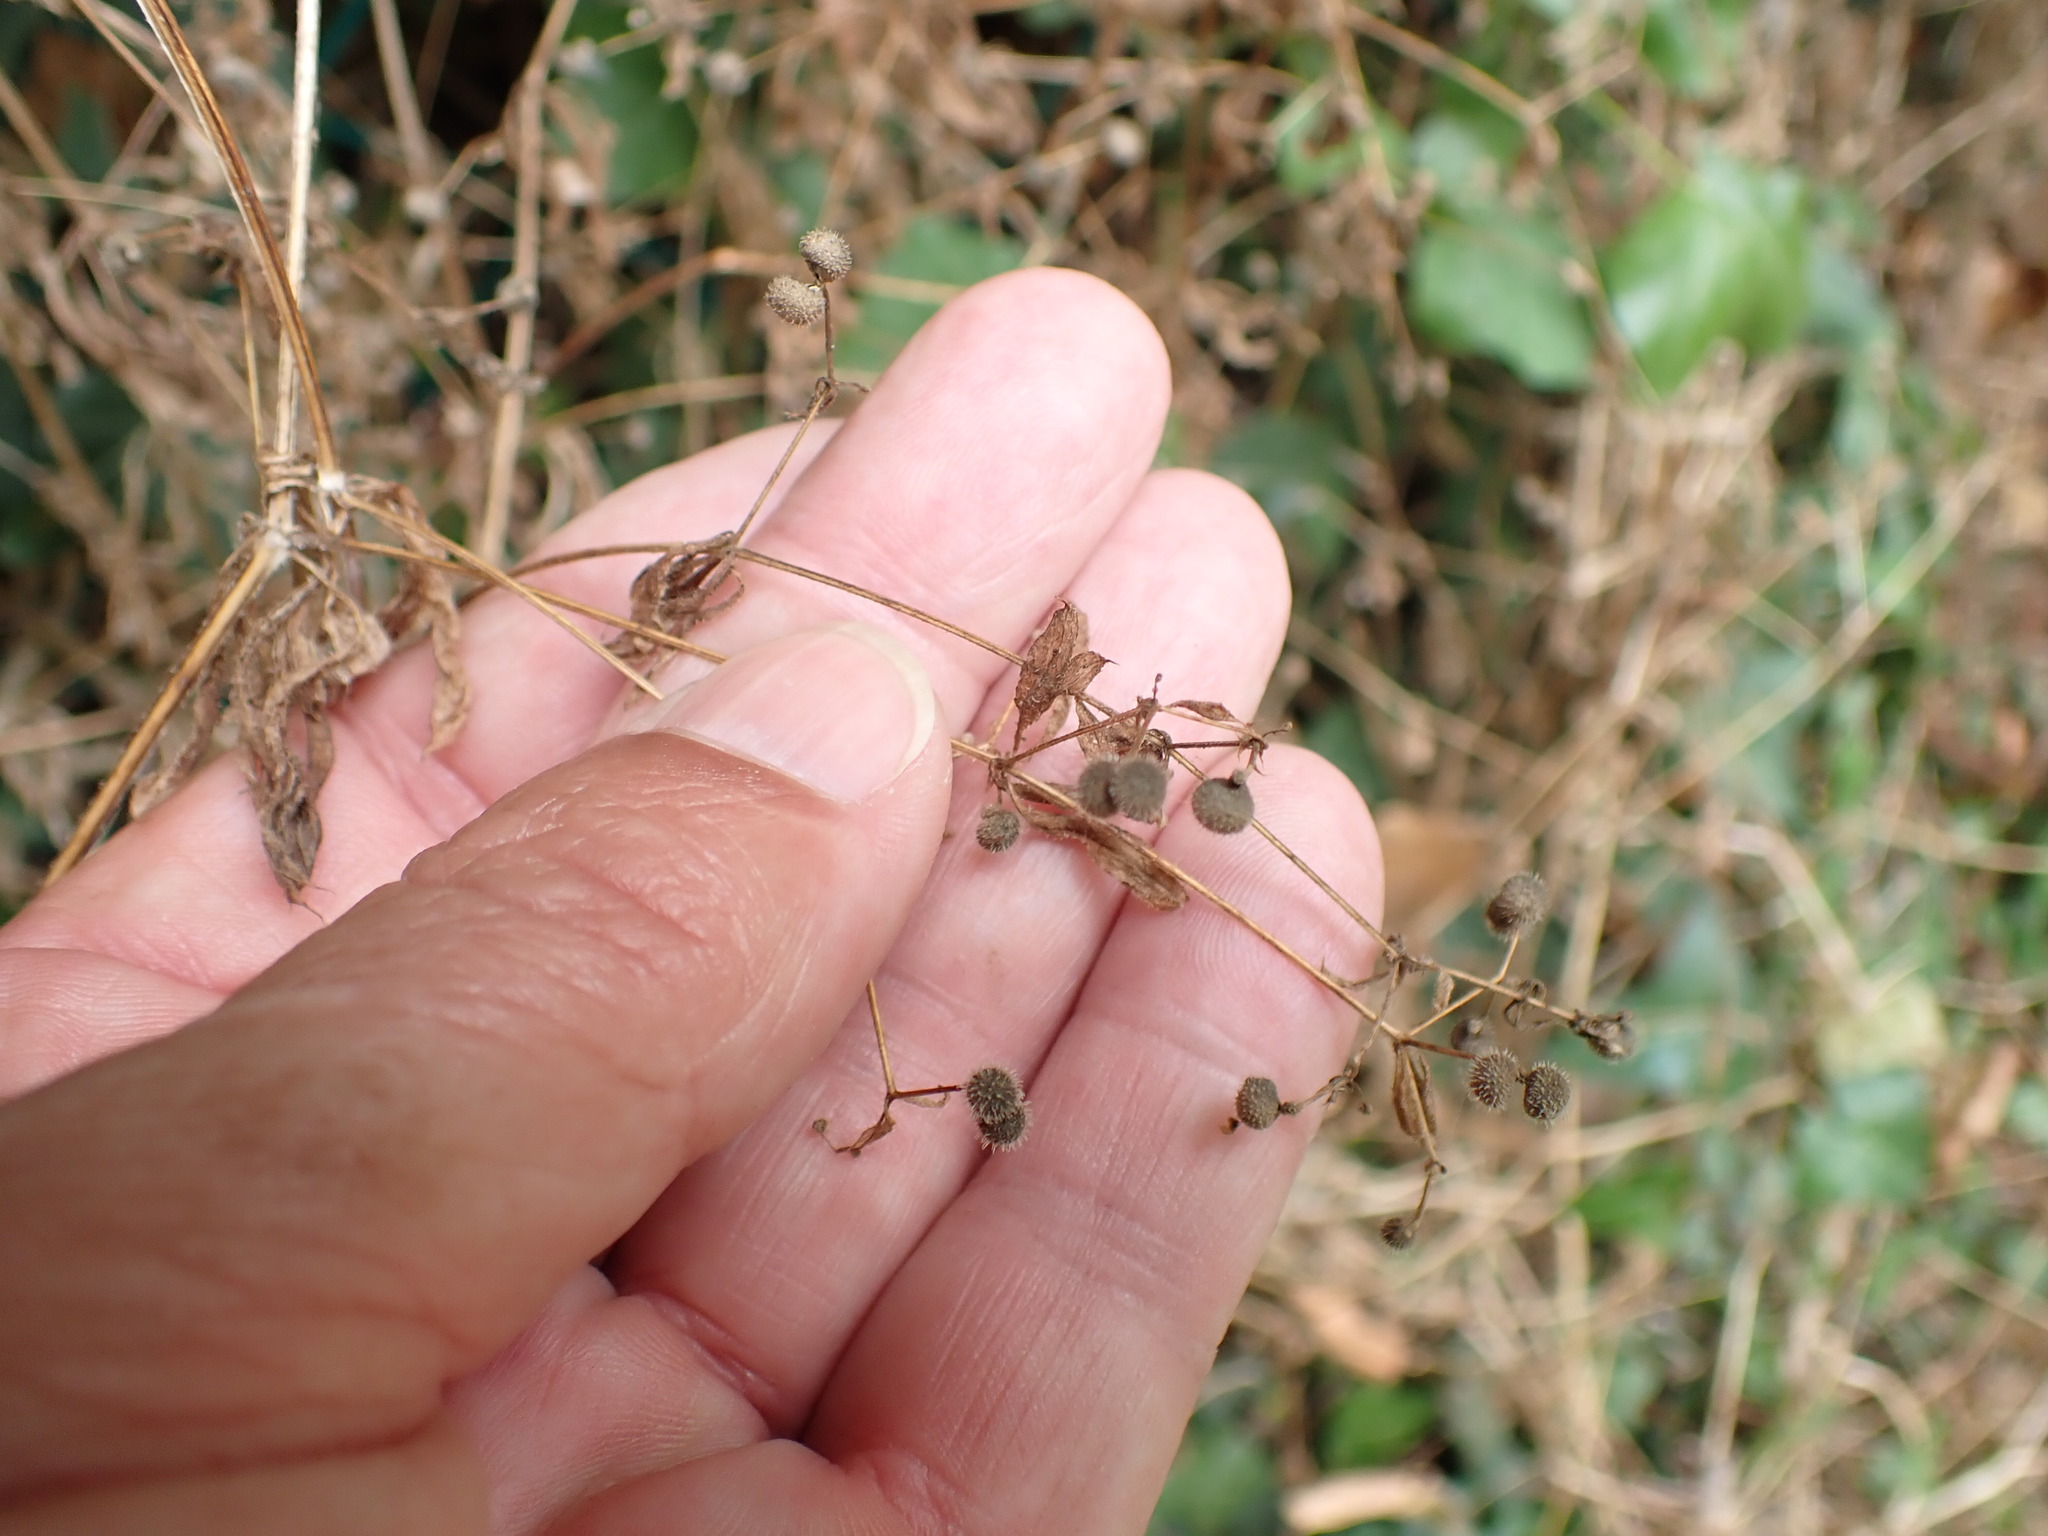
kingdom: Plantae
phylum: Tracheophyta
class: Magnoliopsida
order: Gentianales
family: Rubiaceae
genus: Galium
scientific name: Galium aparine
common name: Cleavers
